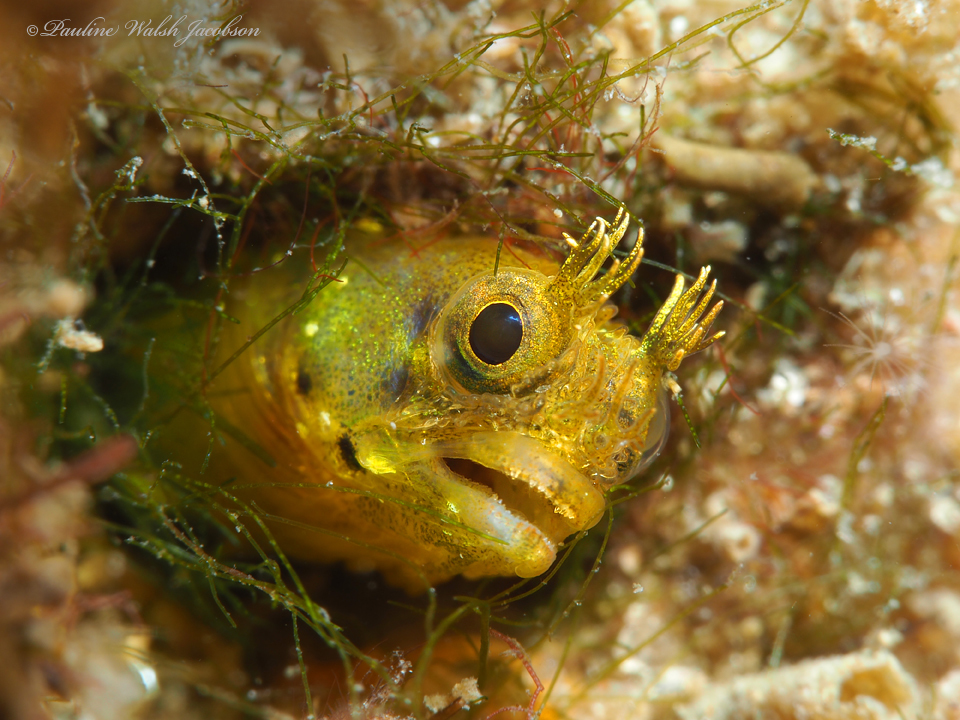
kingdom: Animalia
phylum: Chordata
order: Perciformes
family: Chaenopsidae
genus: Acanthemblemaria
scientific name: Acanthemblemaria aspera
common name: Roughhead blenny
